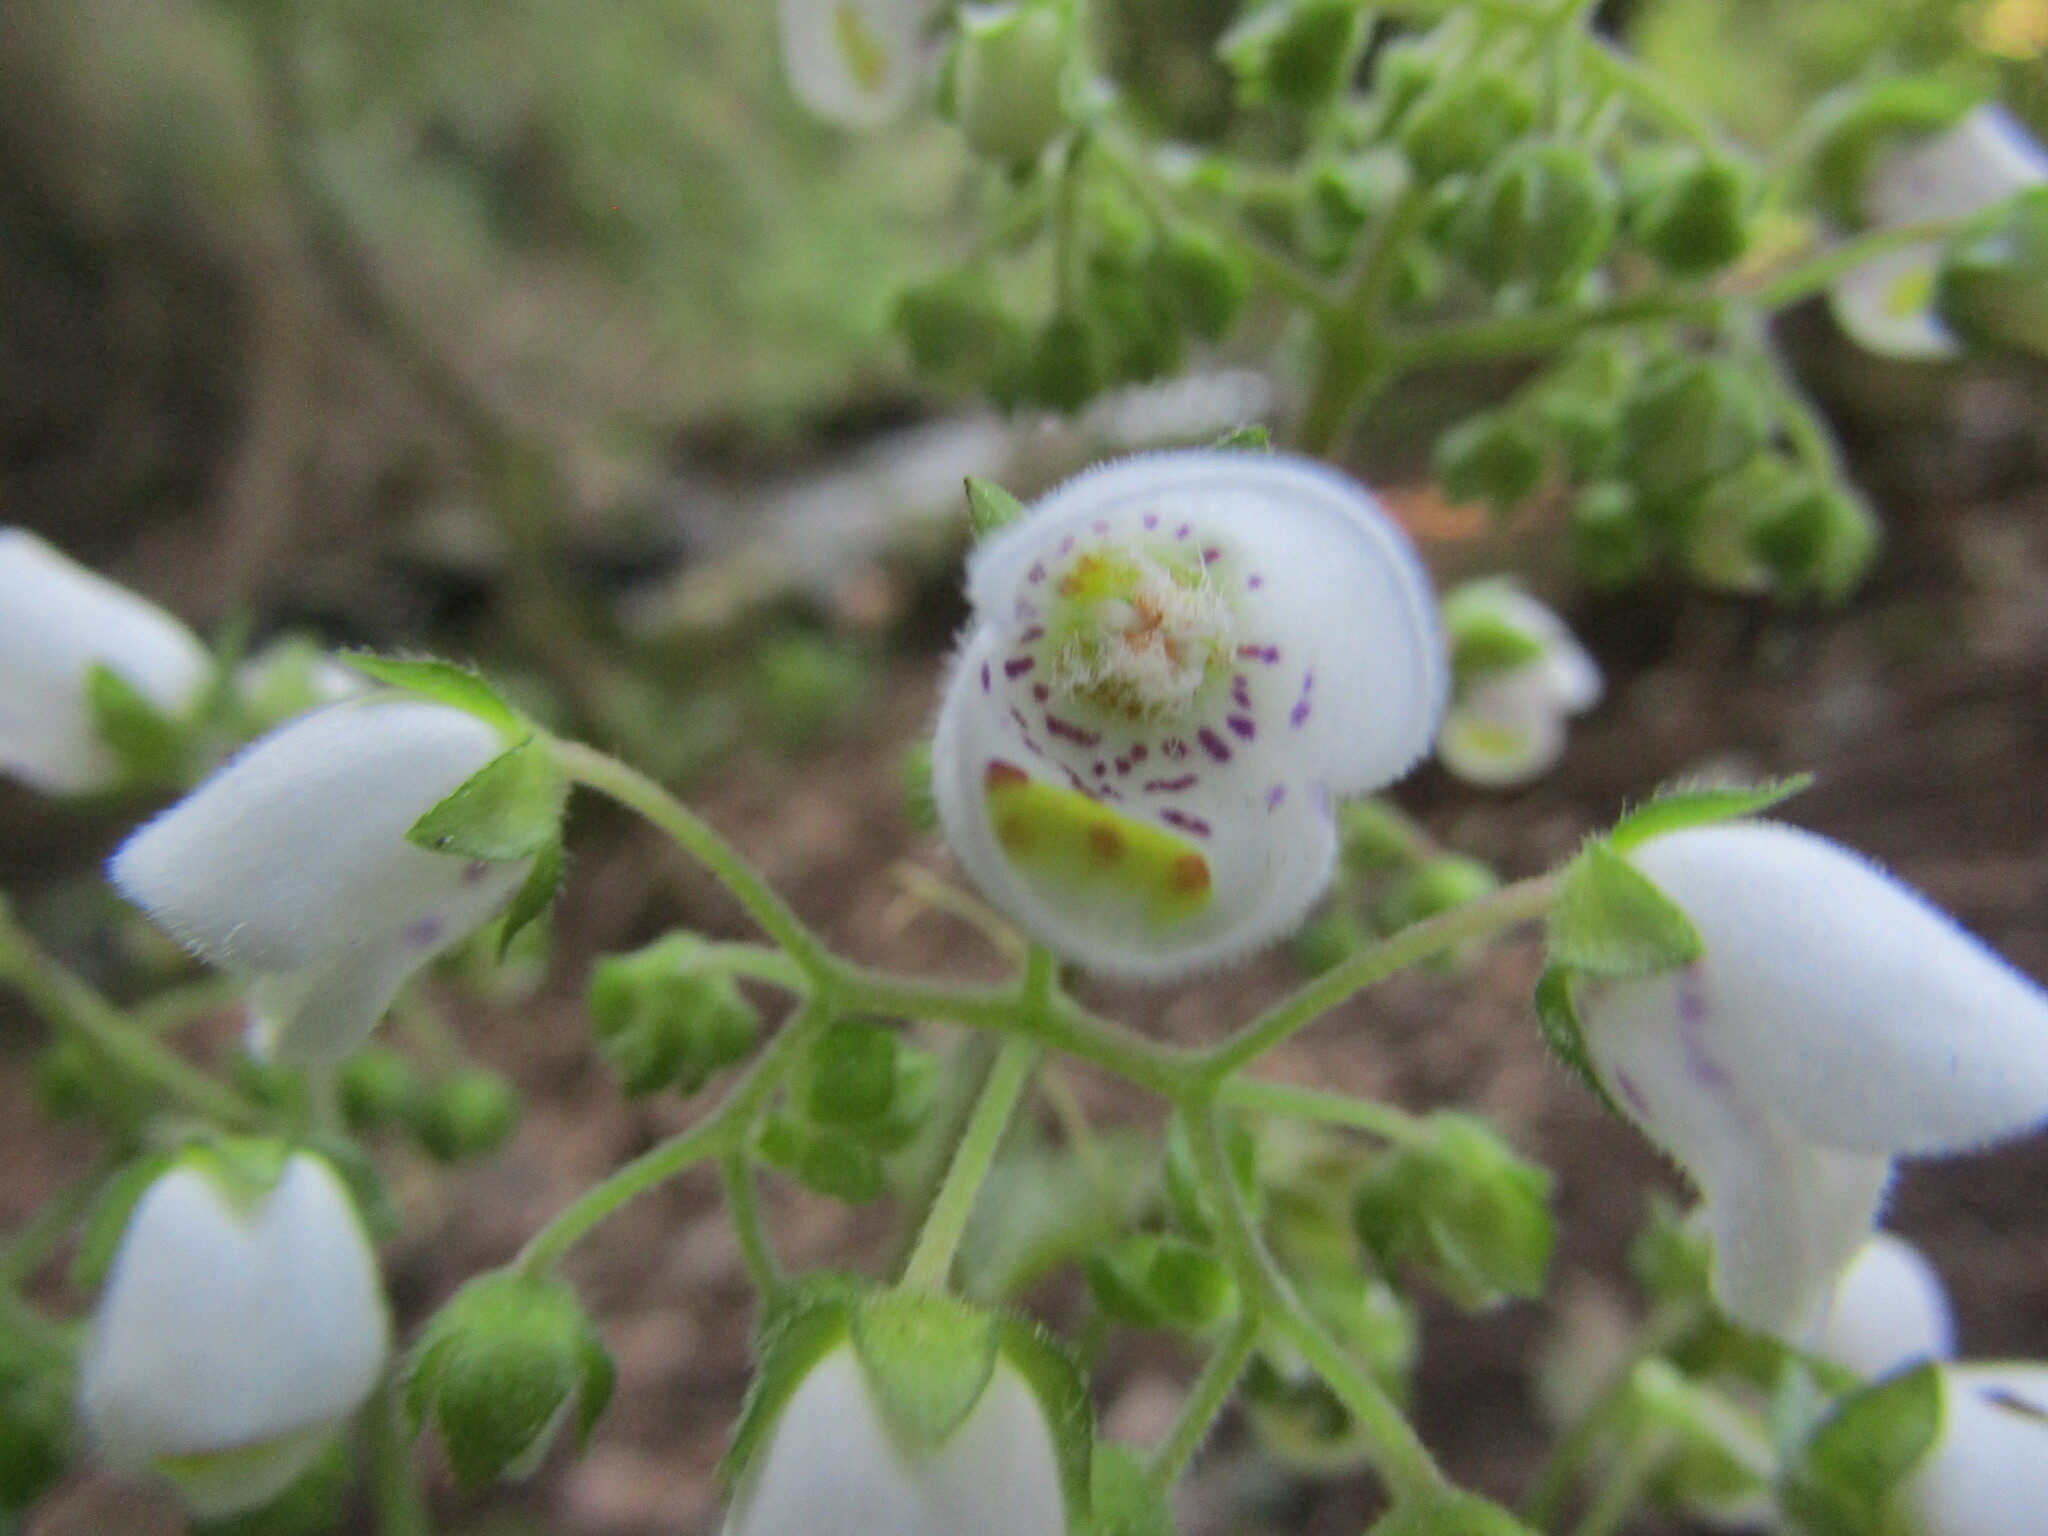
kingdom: Plantae
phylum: Tracheophyta
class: Magnoliopsida
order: Lamiales
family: Calceolariaceae
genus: Jovellana
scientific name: Jovellana punctata
